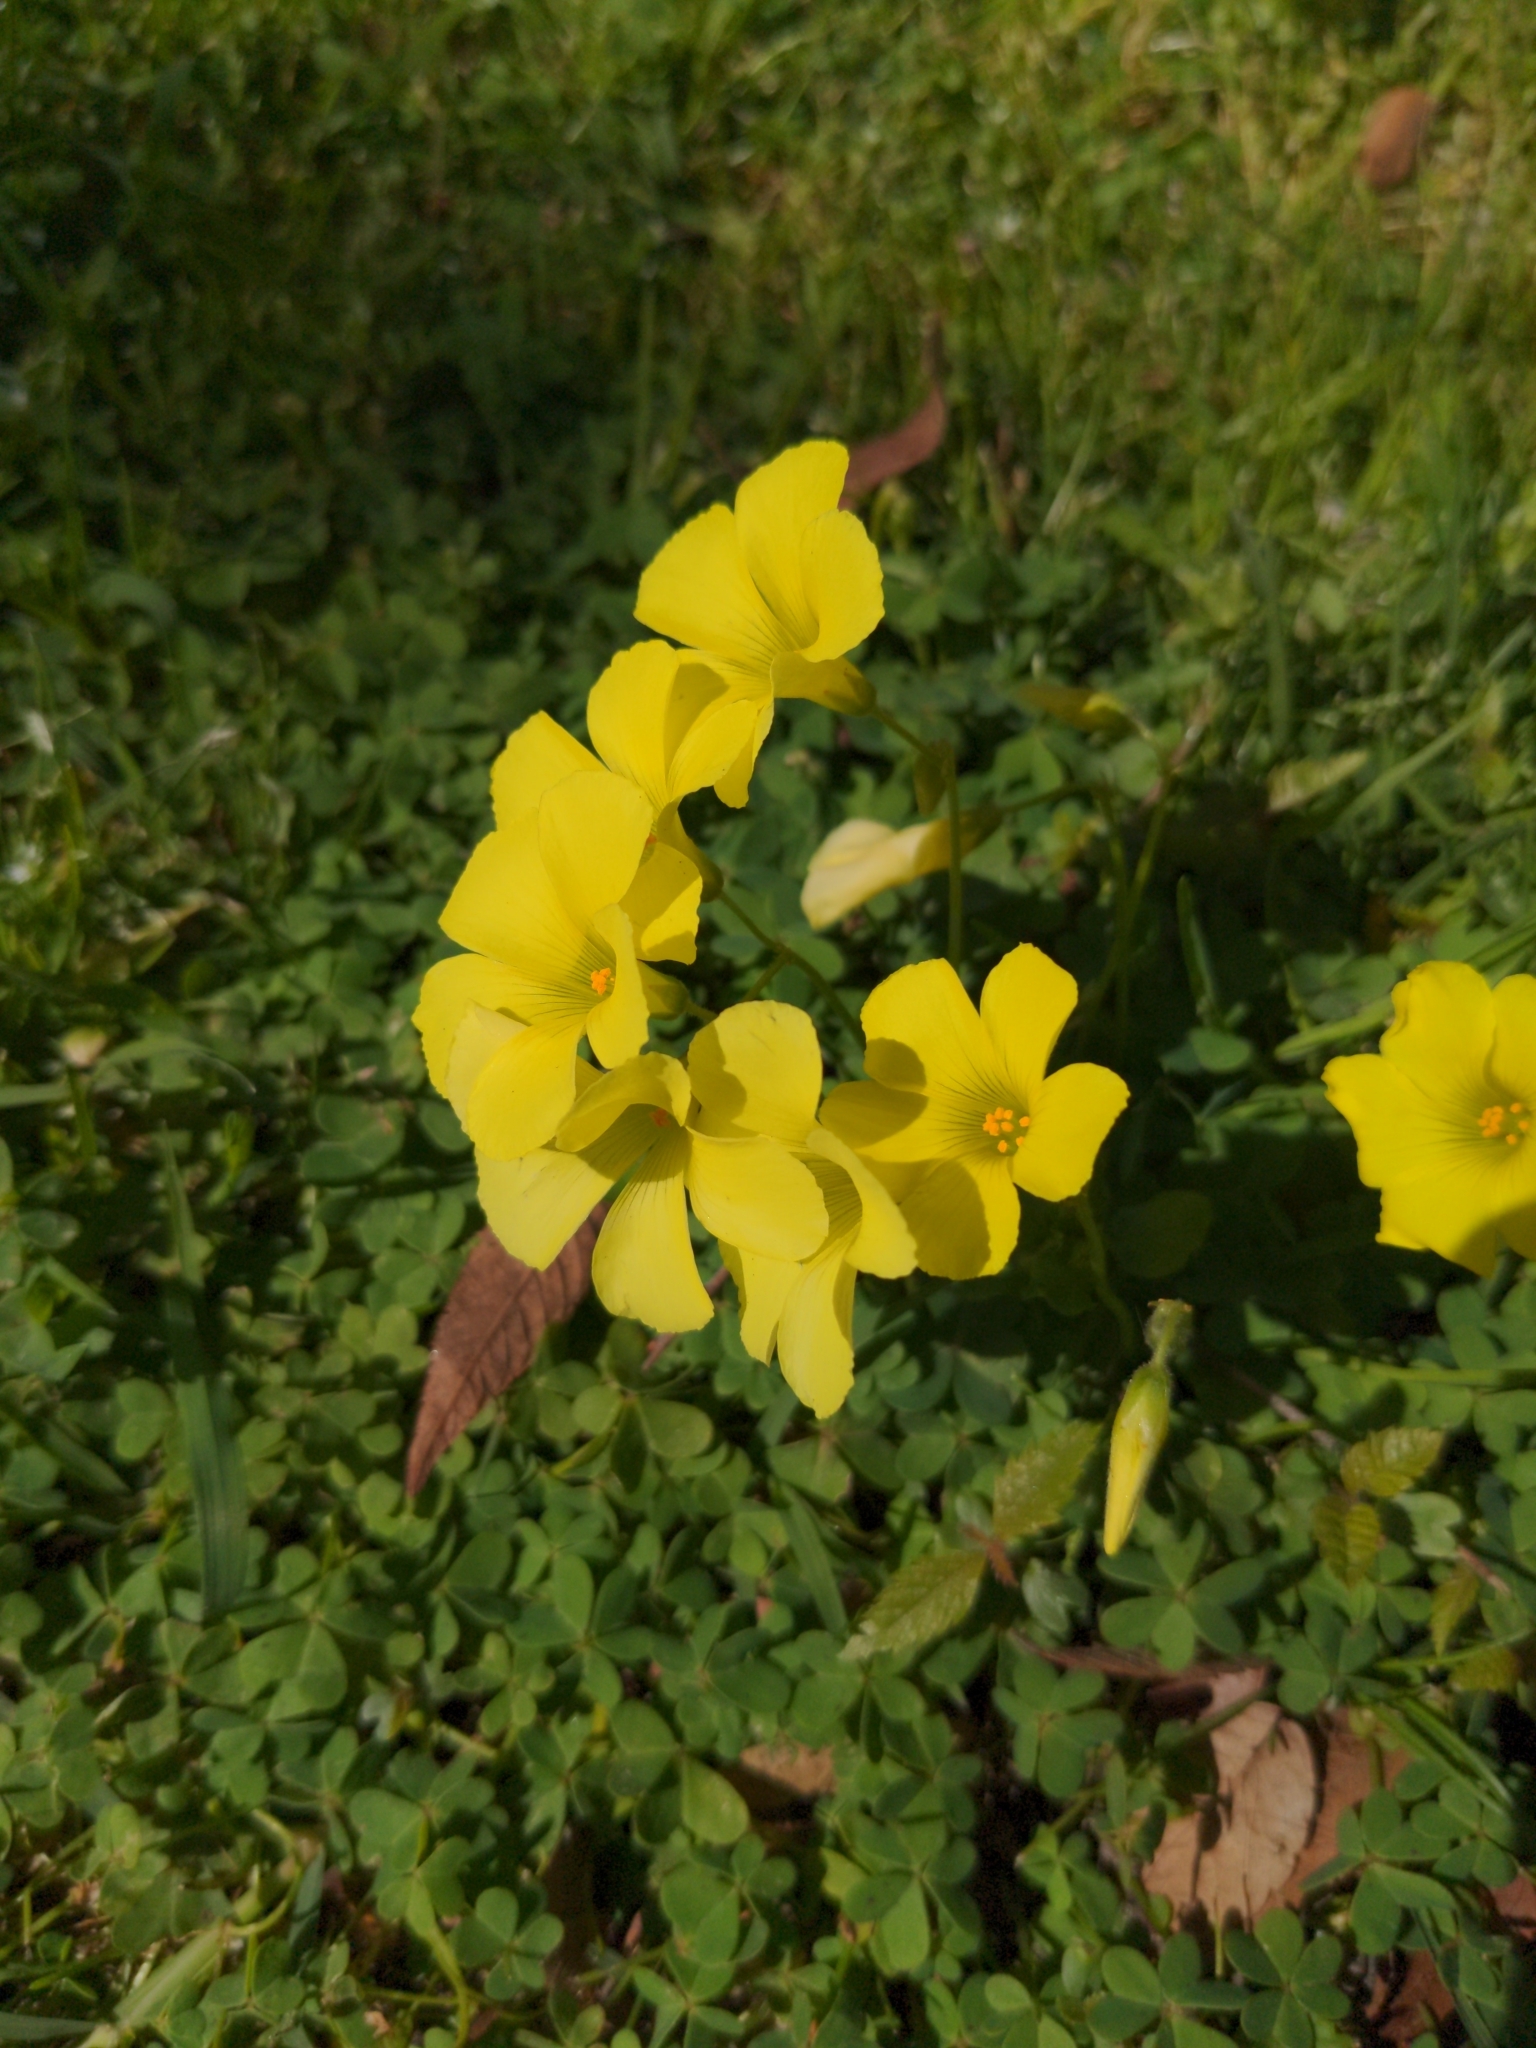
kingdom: Plantae
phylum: Tracheophyta
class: Magnoliopsida
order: Oxalidales
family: Oxalidaceae
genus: Oxalis
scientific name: Oxalis pes-caprae
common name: Bermuda-buttercup
